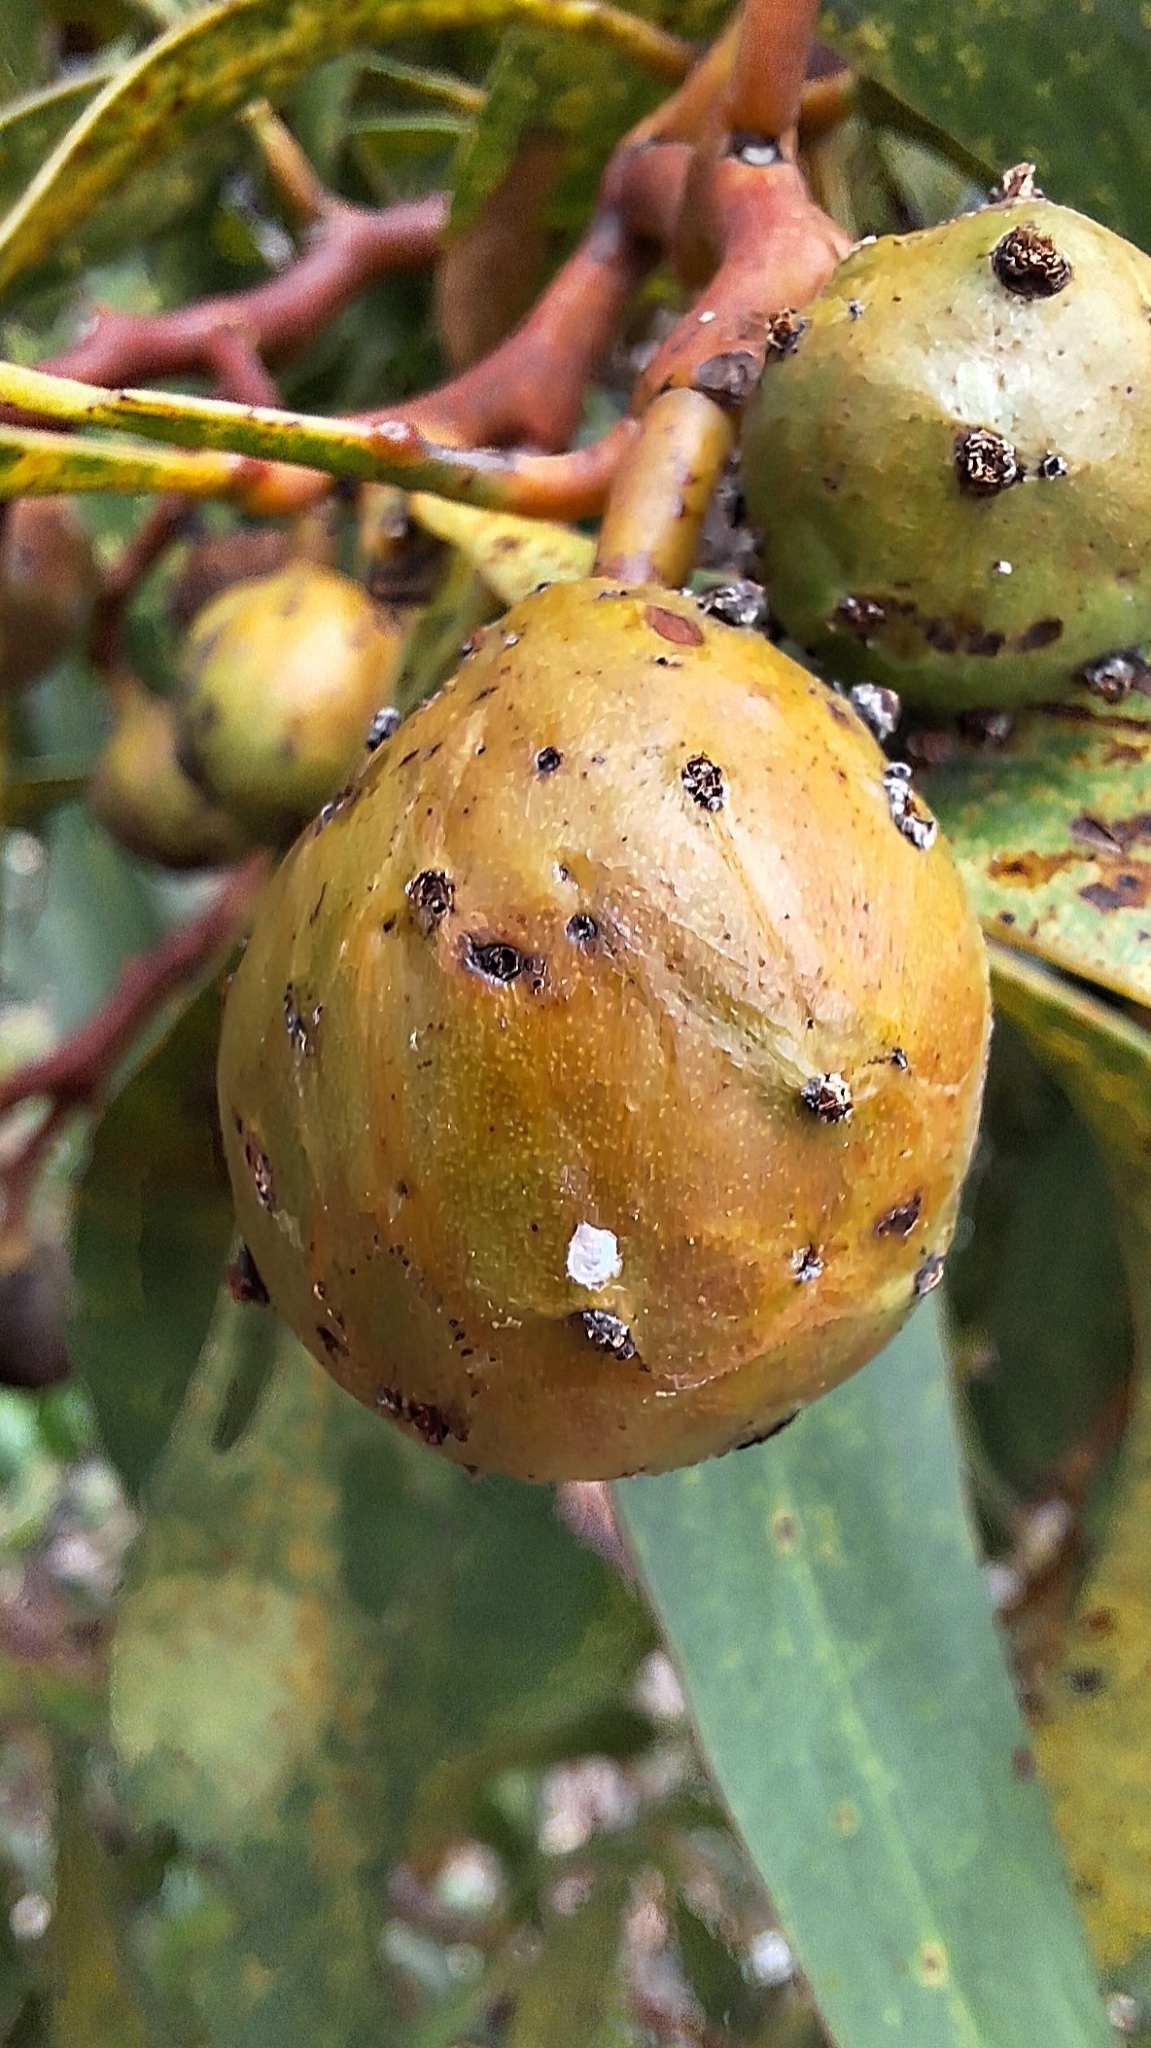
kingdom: Animalia
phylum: Arthropoda
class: Insecta
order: Hymenoptera
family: Pteromalidae
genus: Trichilogaster
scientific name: Trichilogaster signiventris
